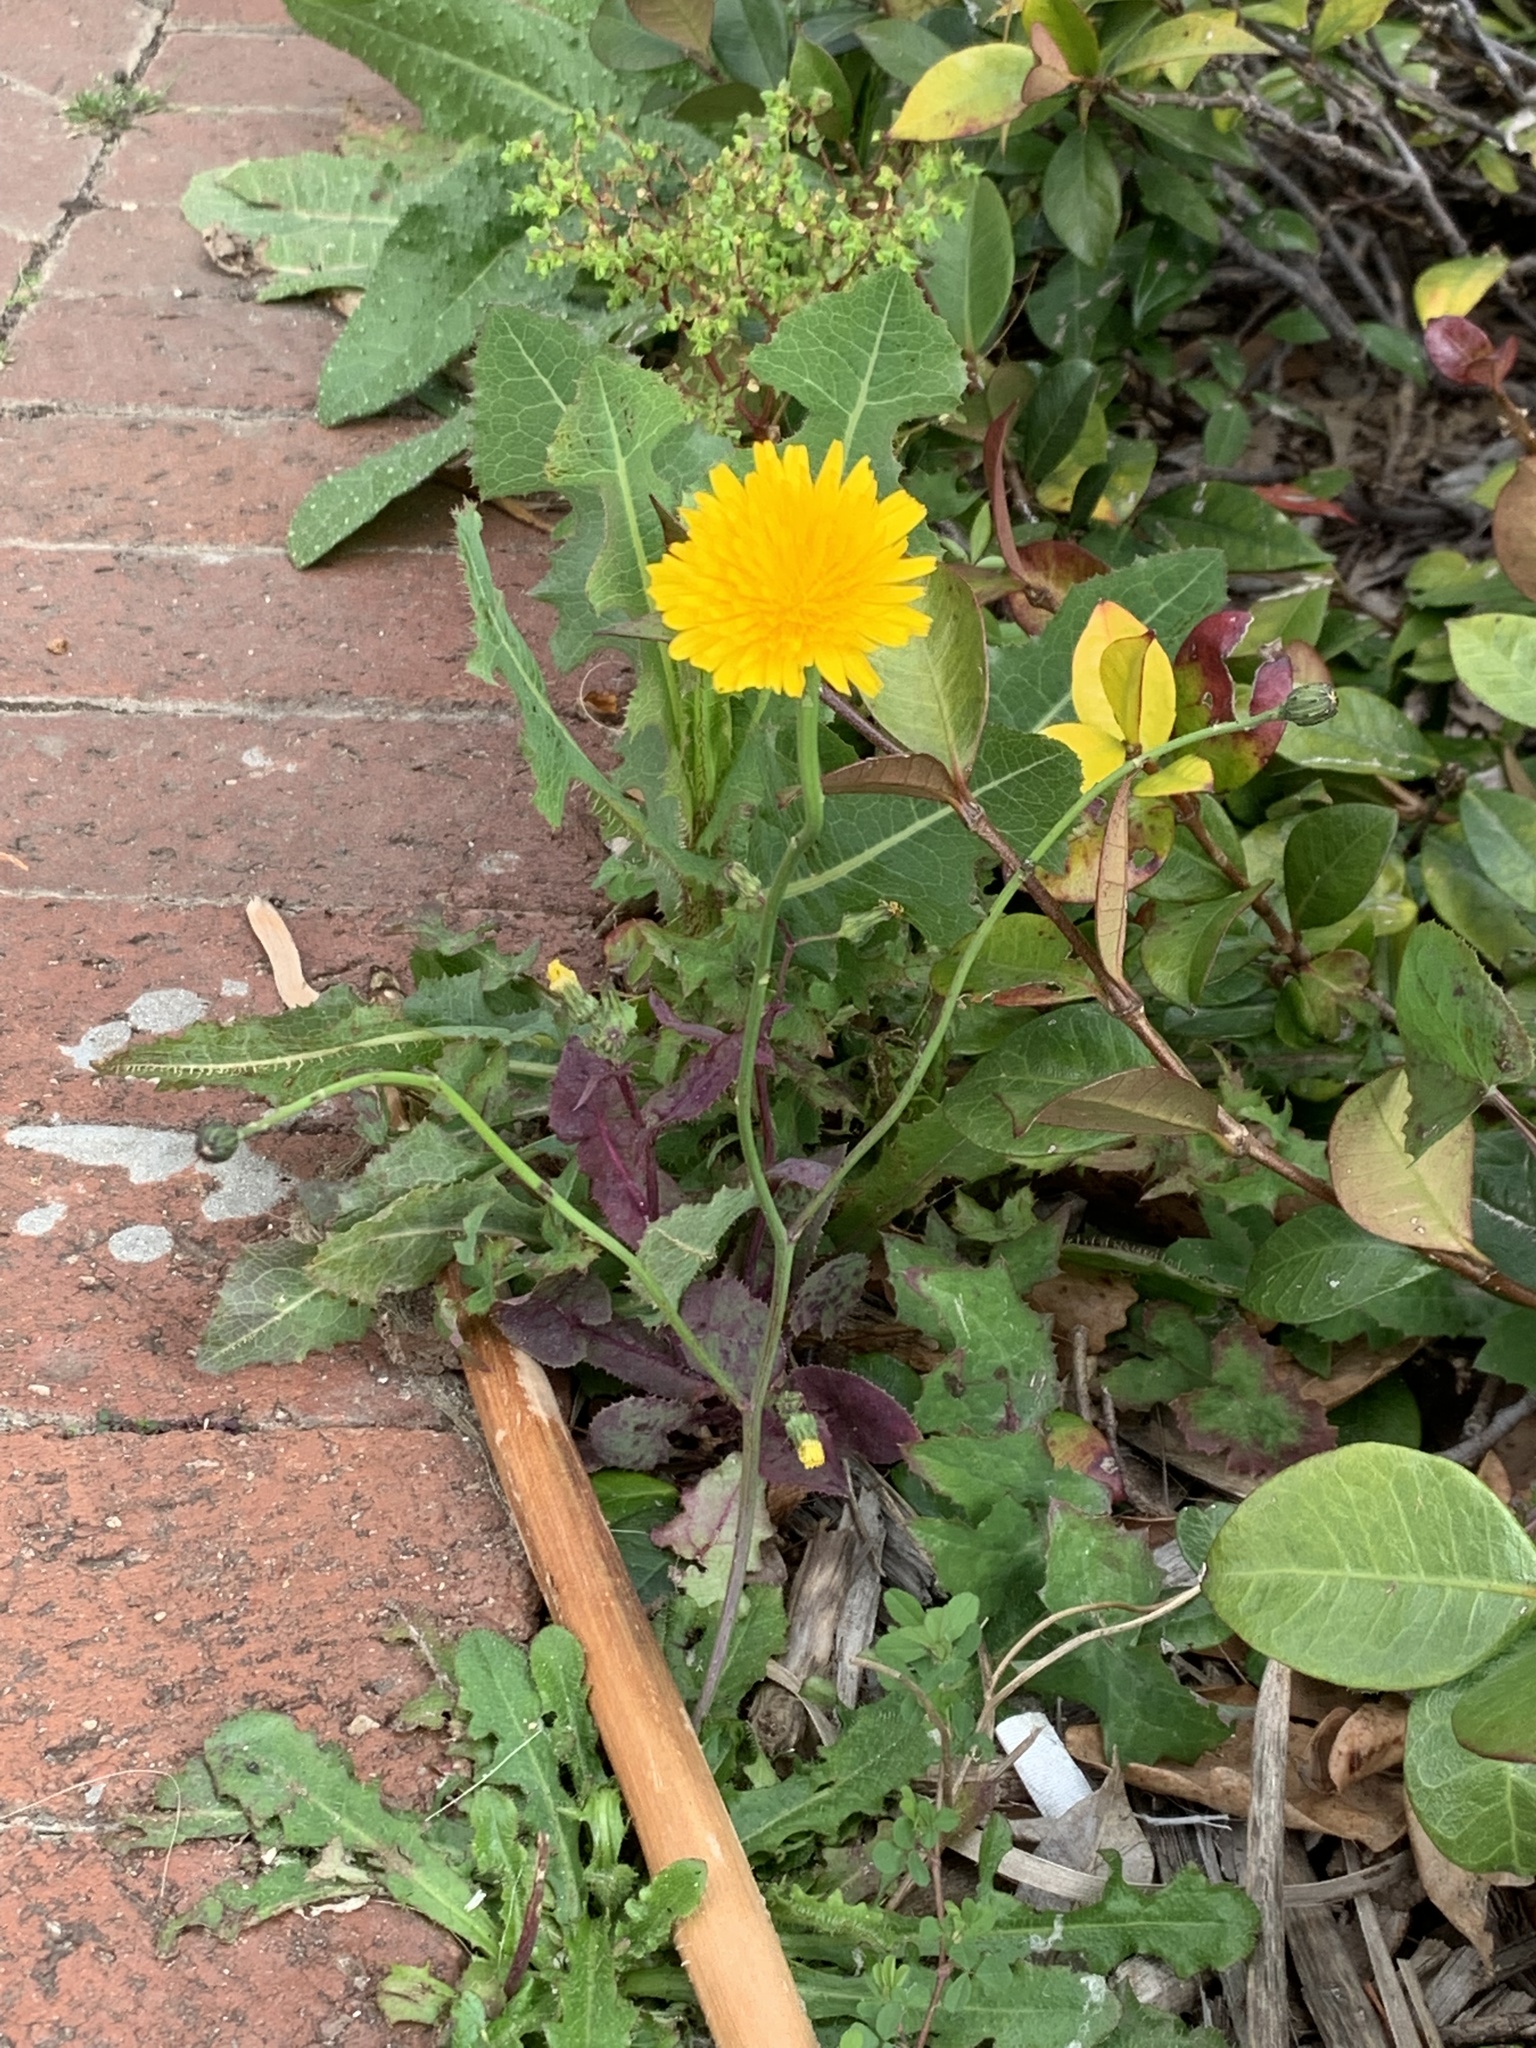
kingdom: Plantae
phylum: Tracheophyta
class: Magnoliopsida
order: Asterales
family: Asteraceae
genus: Hypochaeris
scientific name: Hypochaeris radicata
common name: Flatweed
